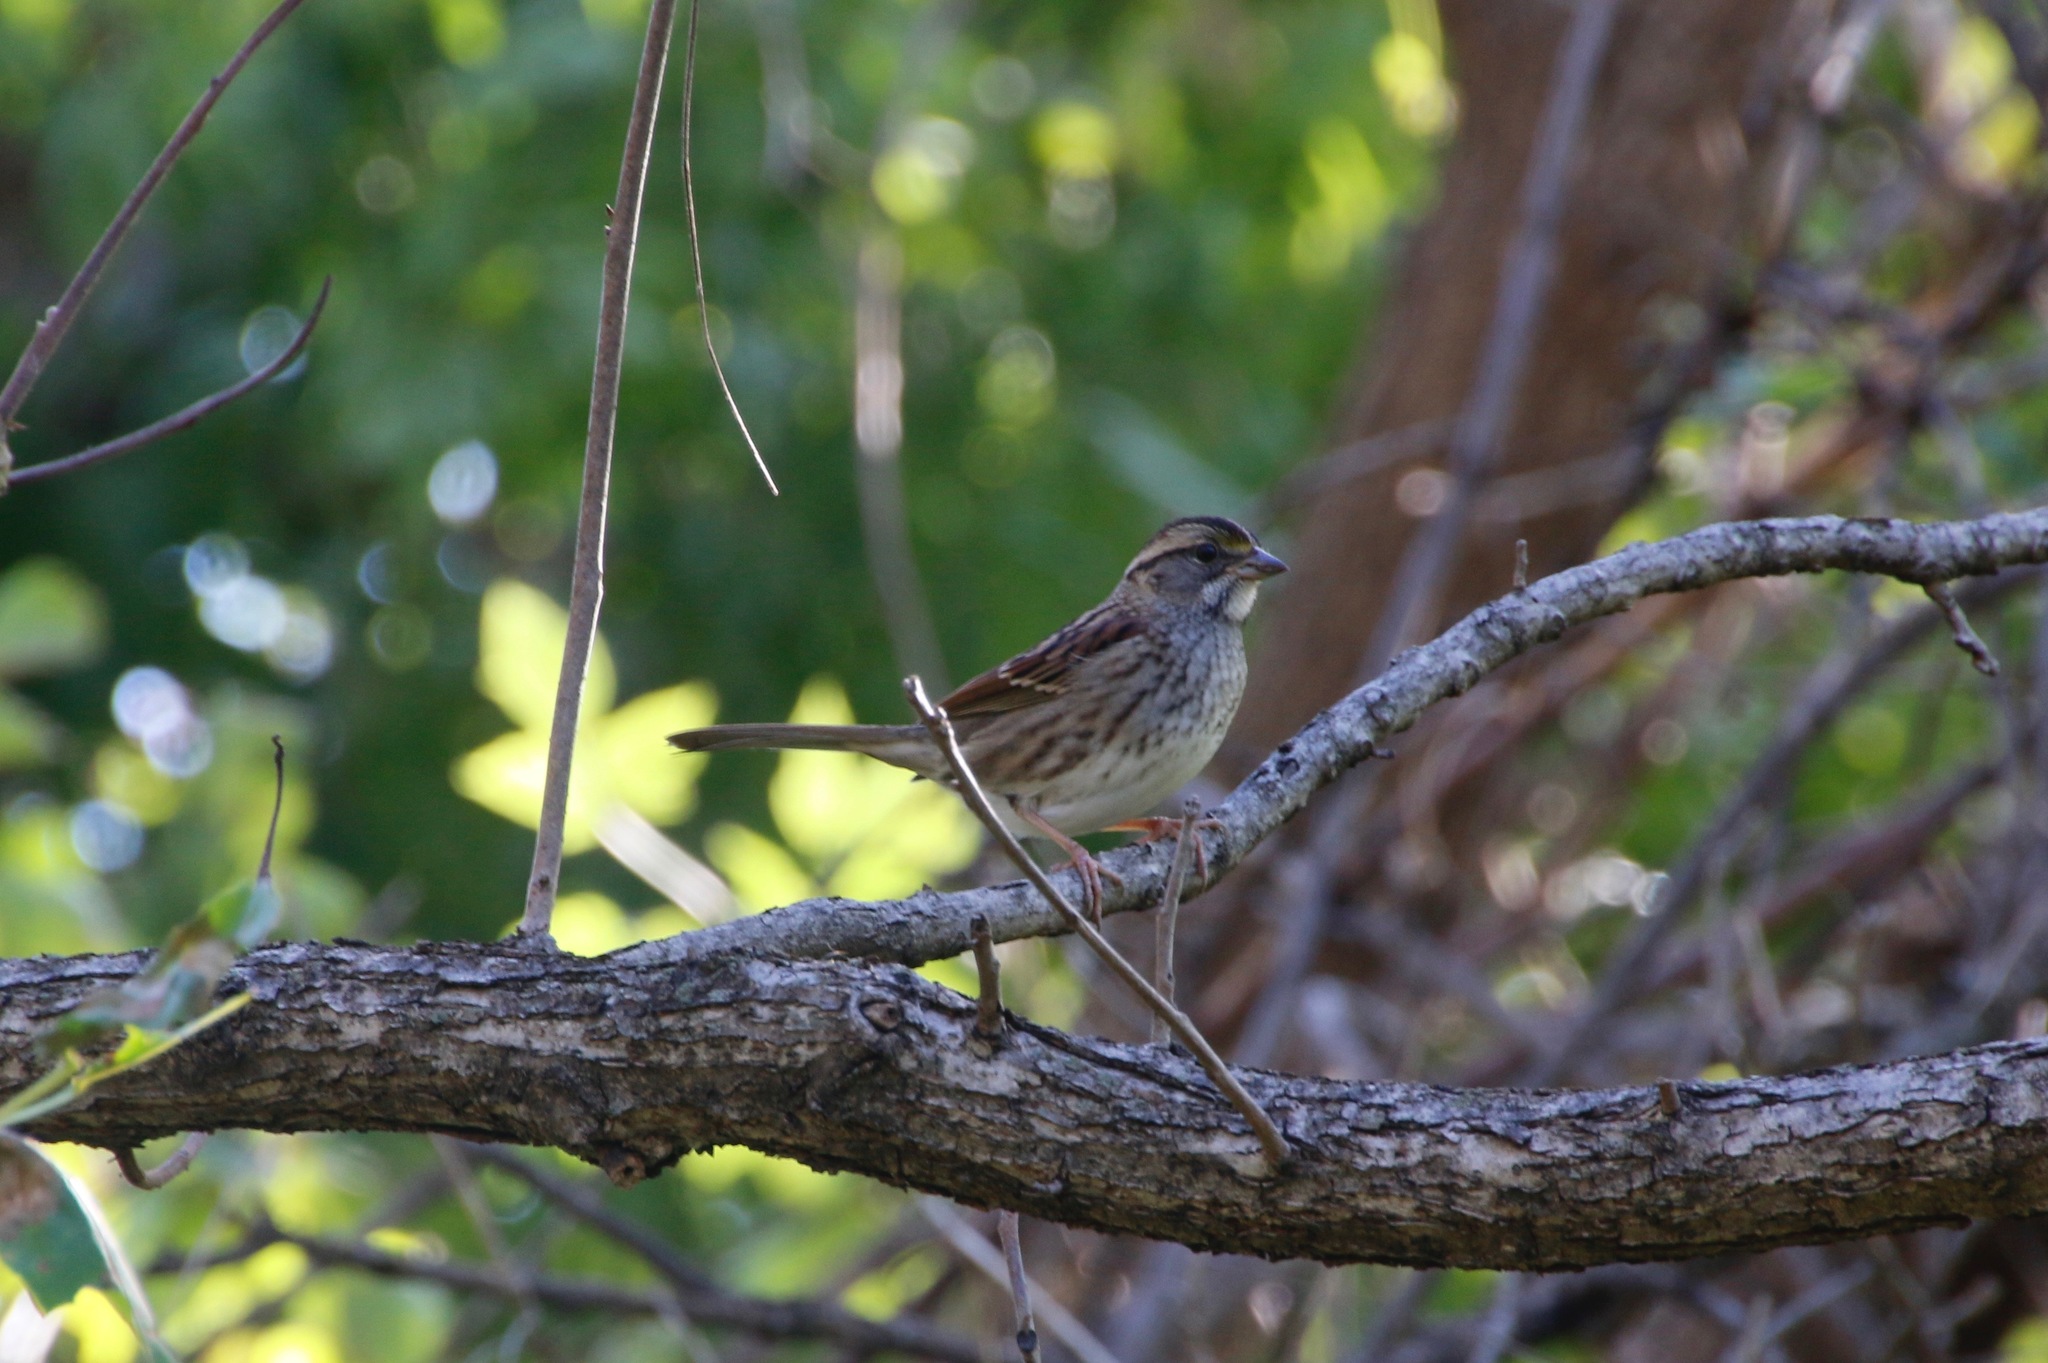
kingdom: Animalia
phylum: Chordata
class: Aves
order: Passeriformes
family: Passerellidae
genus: Zonotrichia
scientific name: Zonotrichia albicollis
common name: White-throated sparrow
